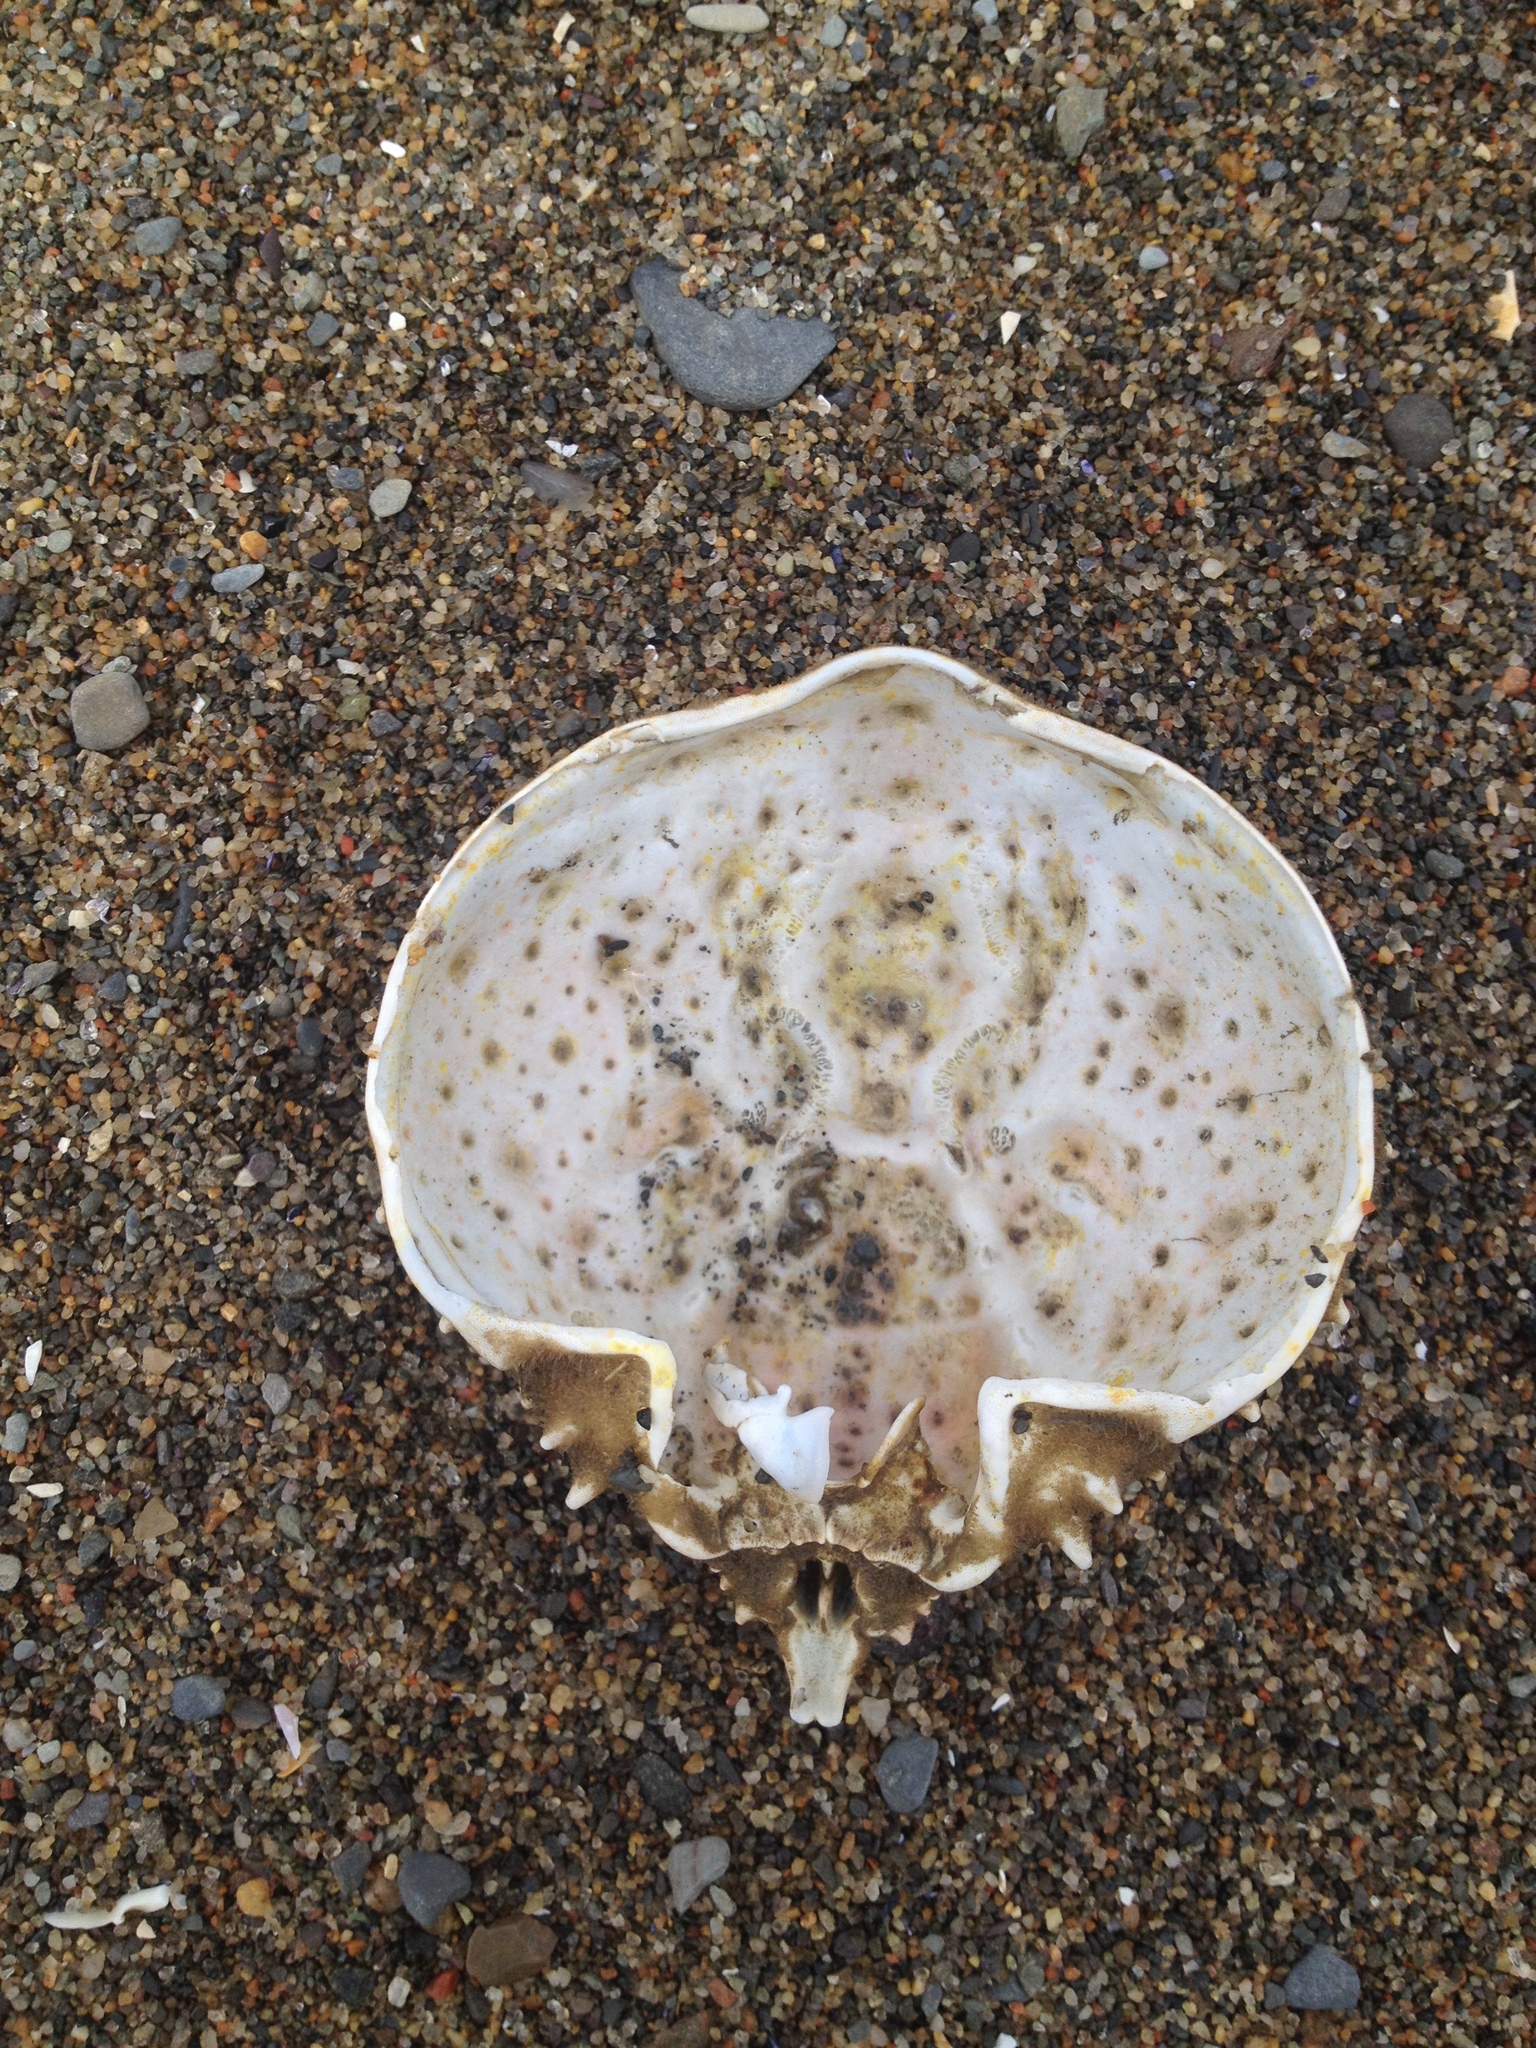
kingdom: Animalia
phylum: Arthropoda
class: Malacostraca
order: Decapoda
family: Epialtidae
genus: Libinia
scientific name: Libinia emarginata
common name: Common spider crab
